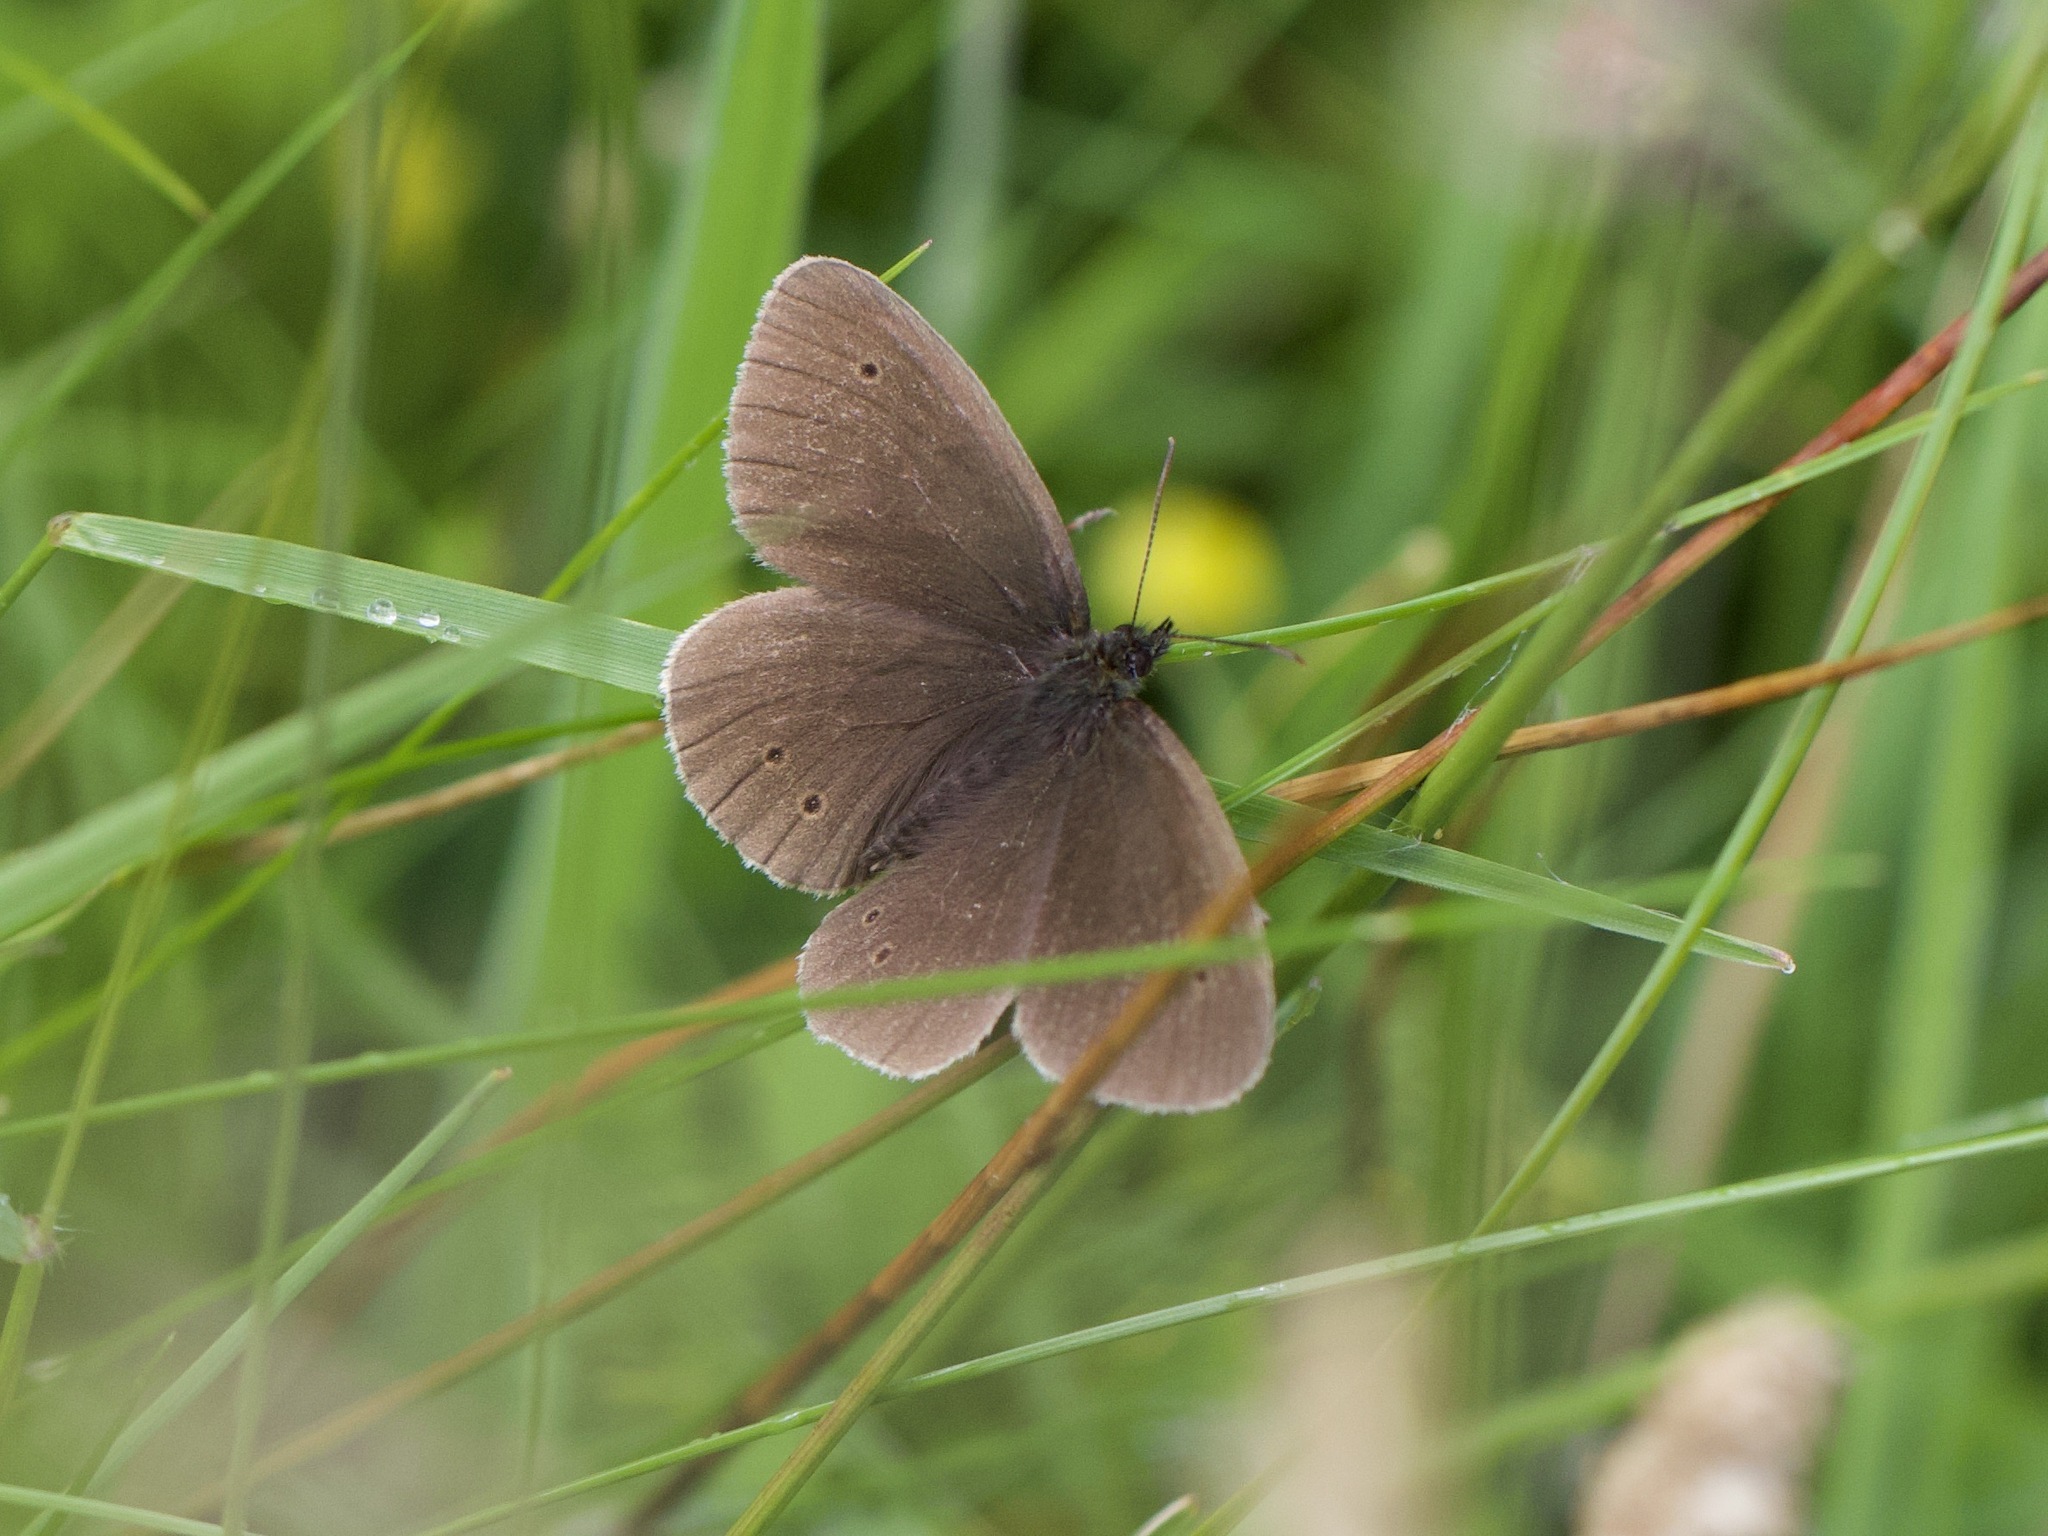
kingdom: Animalia
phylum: Arthropoda
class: Insecta
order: Lepidoptera
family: Nymphalidae
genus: Aphantopus
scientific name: Aphantopus hyperantus
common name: Ringlet
